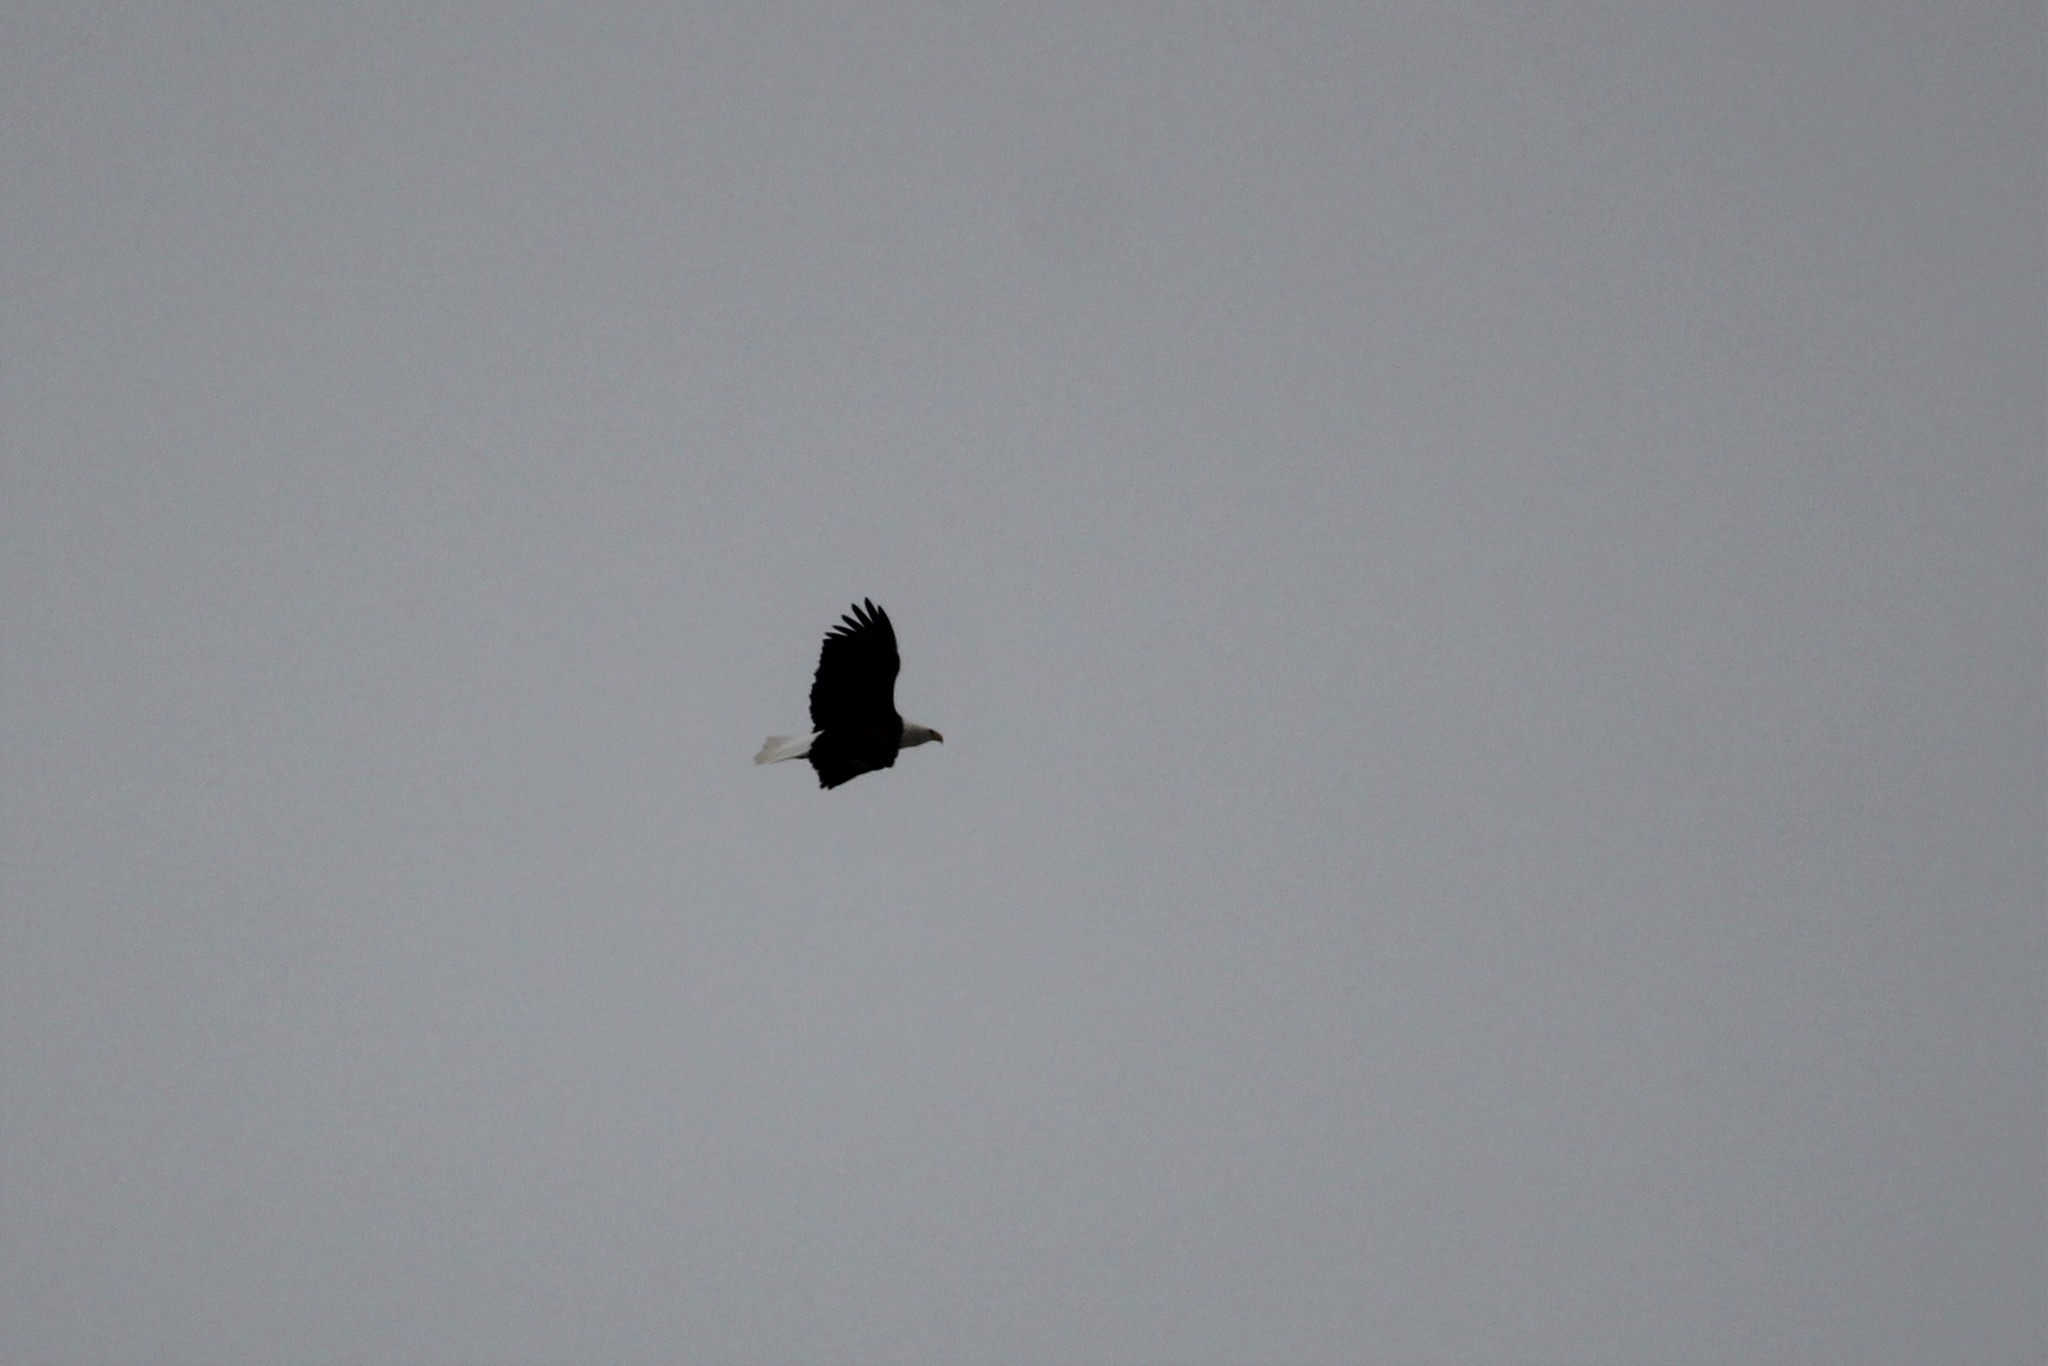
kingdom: Animalia
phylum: Chordata
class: Aves
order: Accipitriformes
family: Accipitridae
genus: Haliaeetus
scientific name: Haliaeetus leucocephalus
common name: Bald eagle
